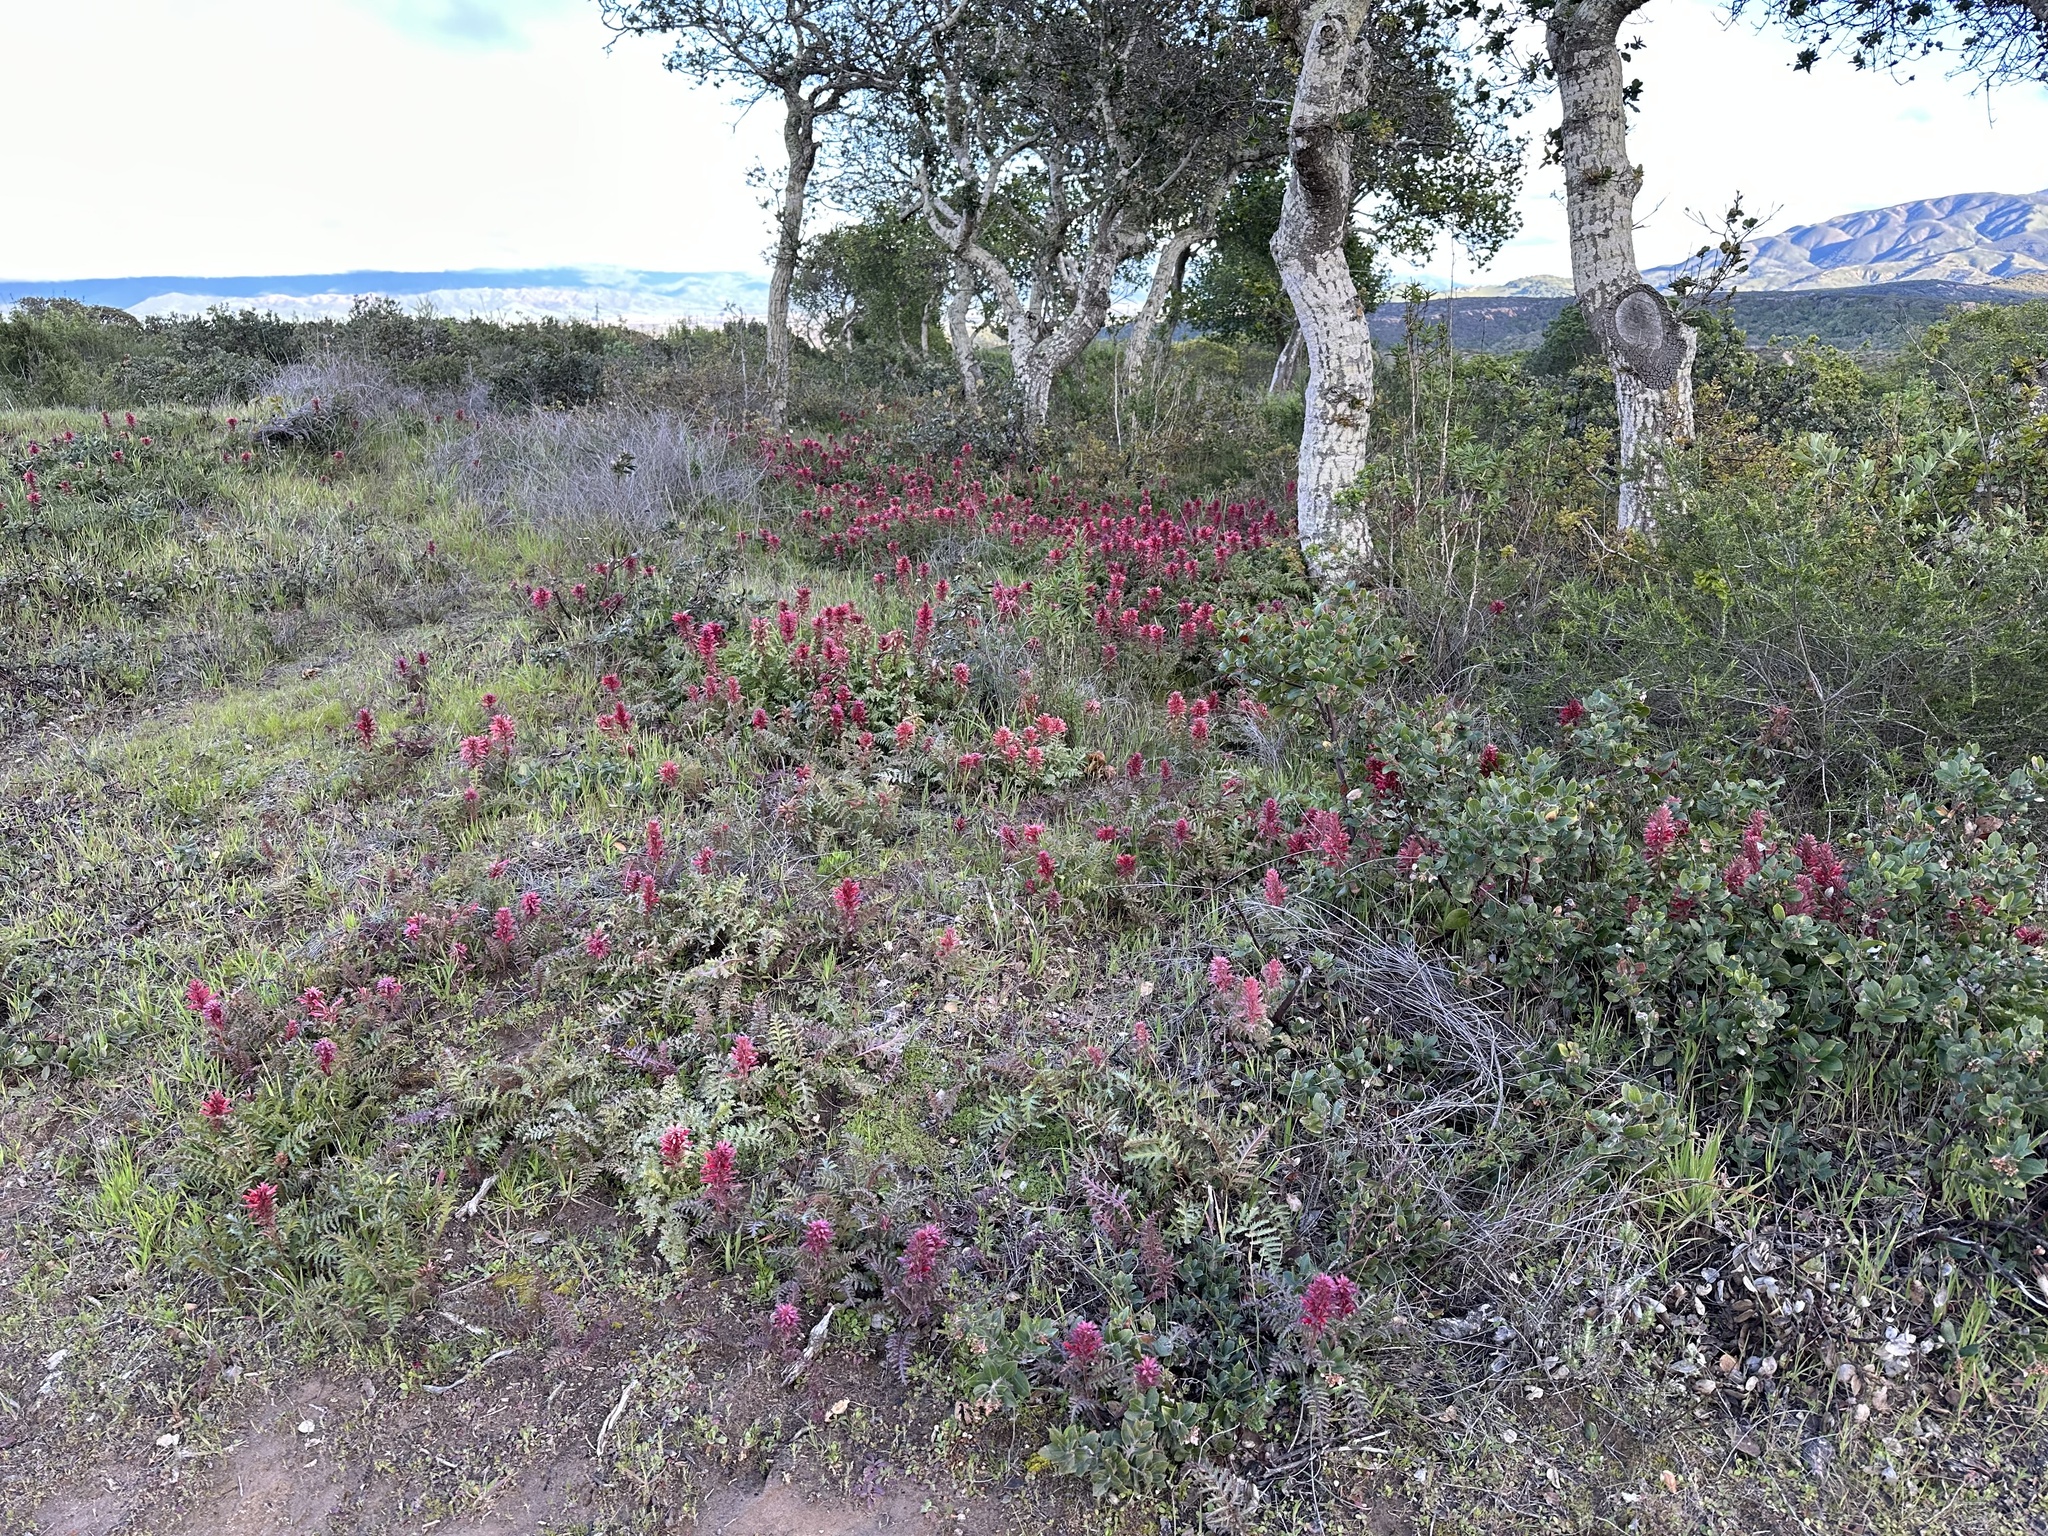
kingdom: Plantae
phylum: Tracheophyta
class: Magnoliopsida
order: Lamiales
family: Orobanchaceae
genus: Pedicularis
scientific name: Pedicularis densiflora
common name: Indian warrior
